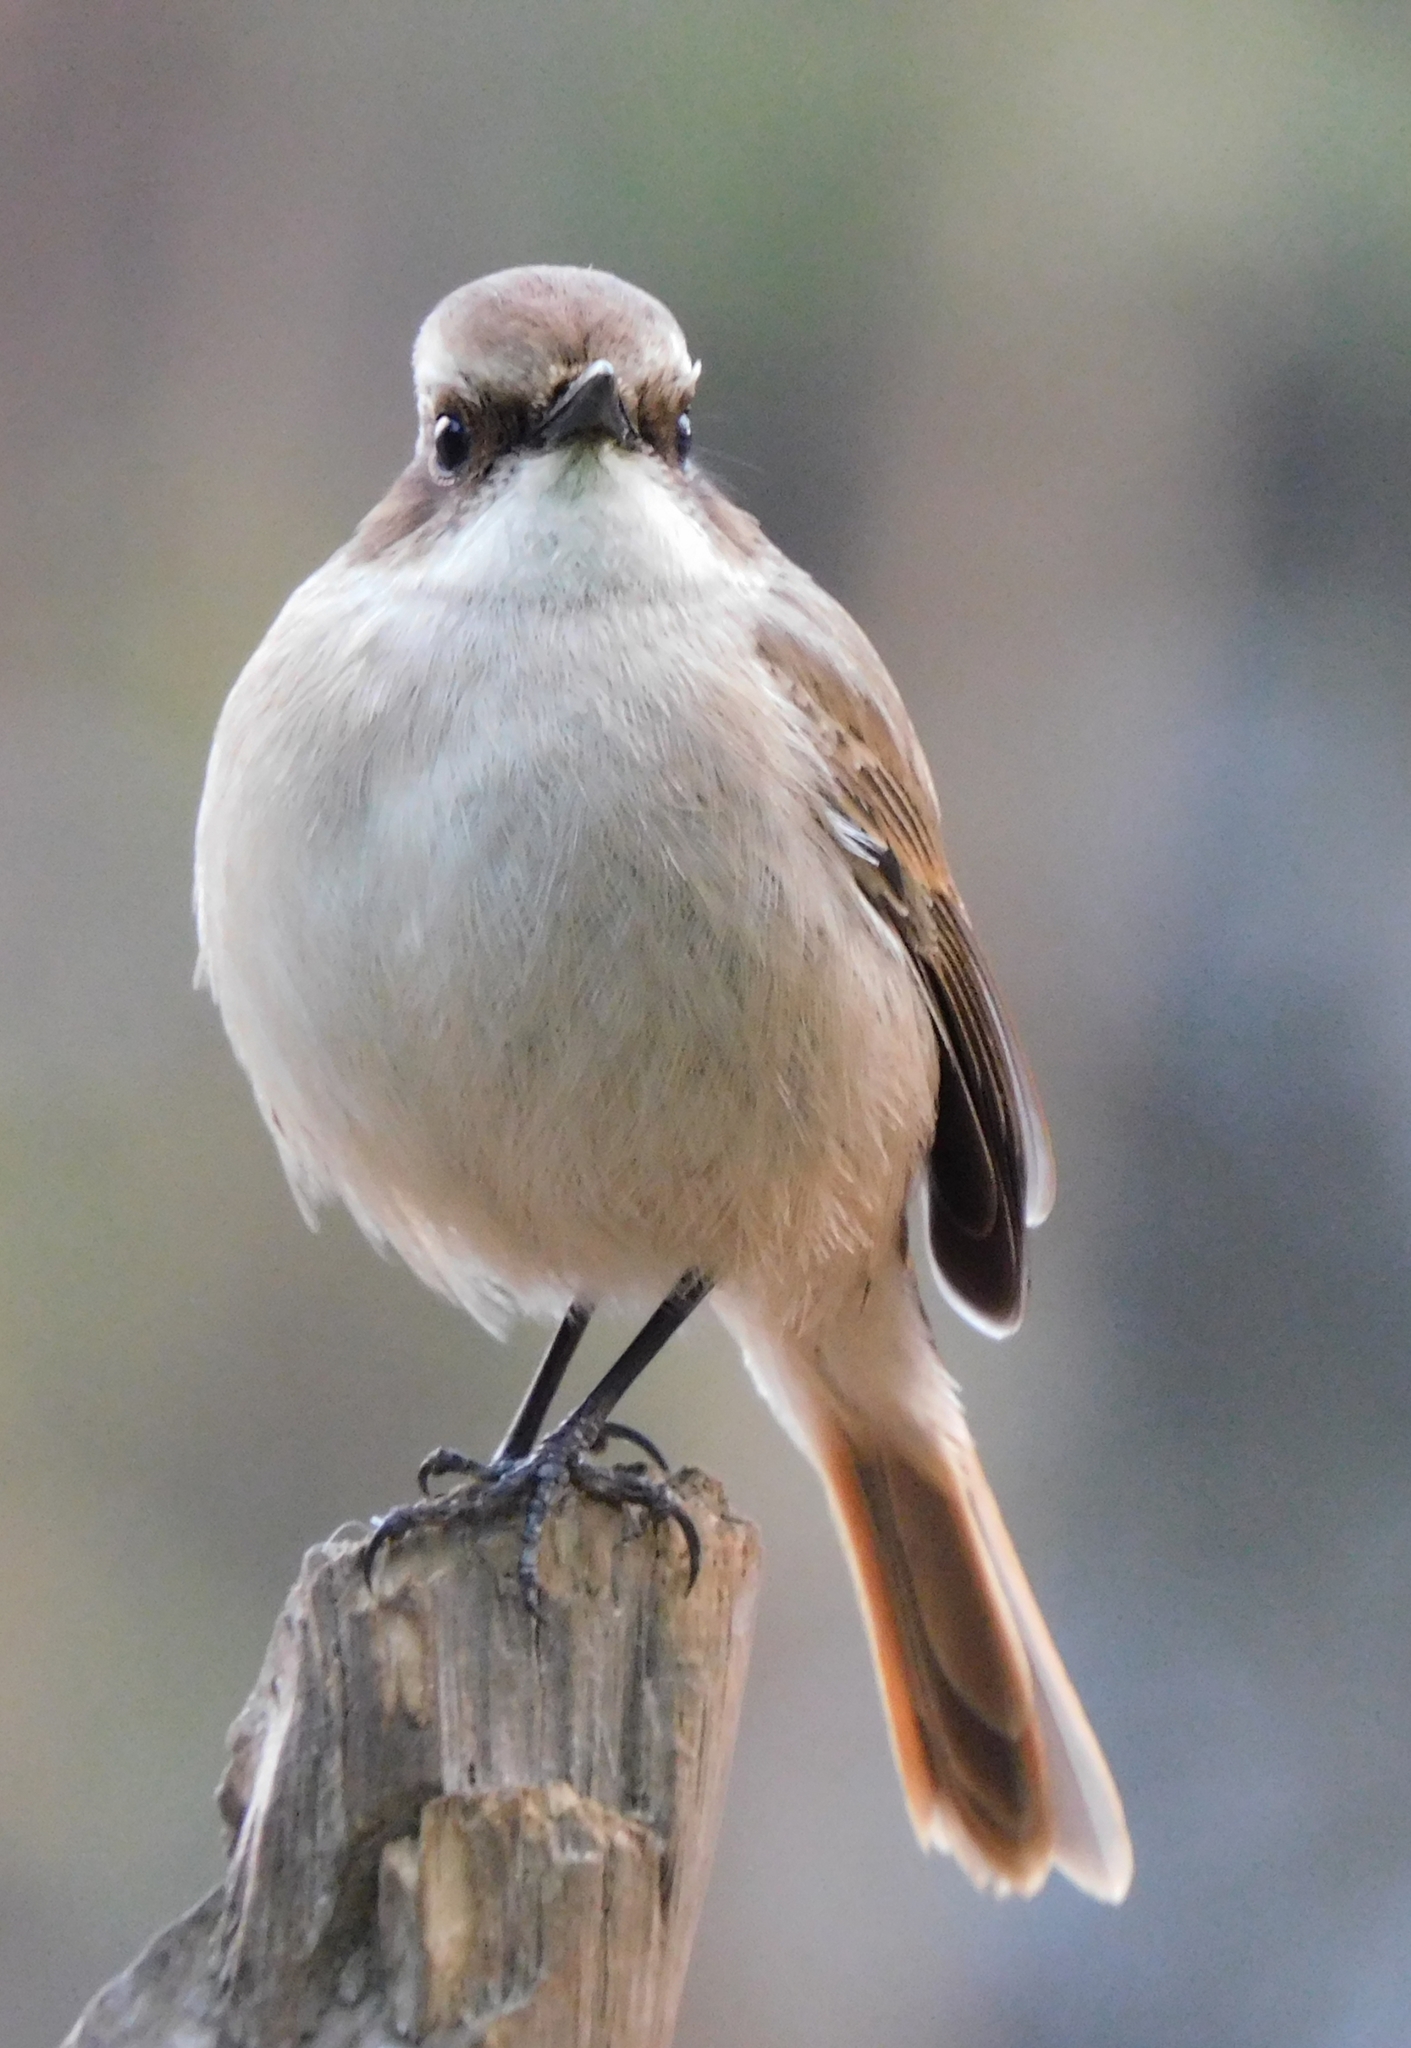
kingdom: Animalia
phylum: Chordata
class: Aves
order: Passeriformes
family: Muscicapidae
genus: Saxicola
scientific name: Saxicola ferreus
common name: Grey bush chat
